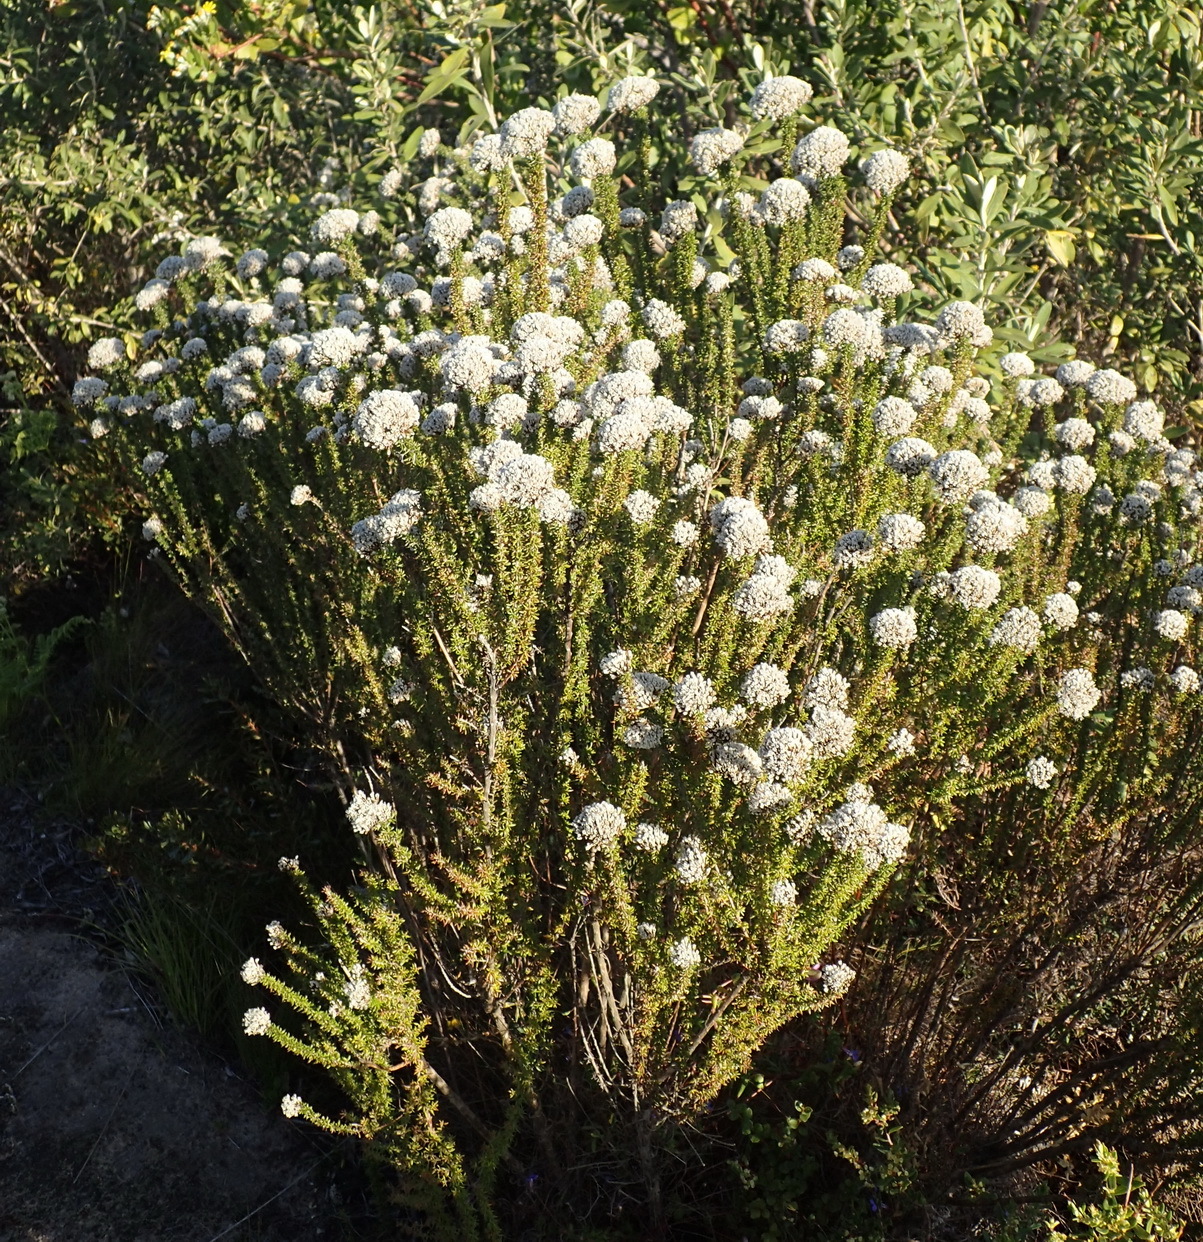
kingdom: Plantae
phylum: Tracheophyta
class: Magnoliopsida
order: Asterales
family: Asteraceae
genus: Metalasia
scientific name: Metalasia muricata
